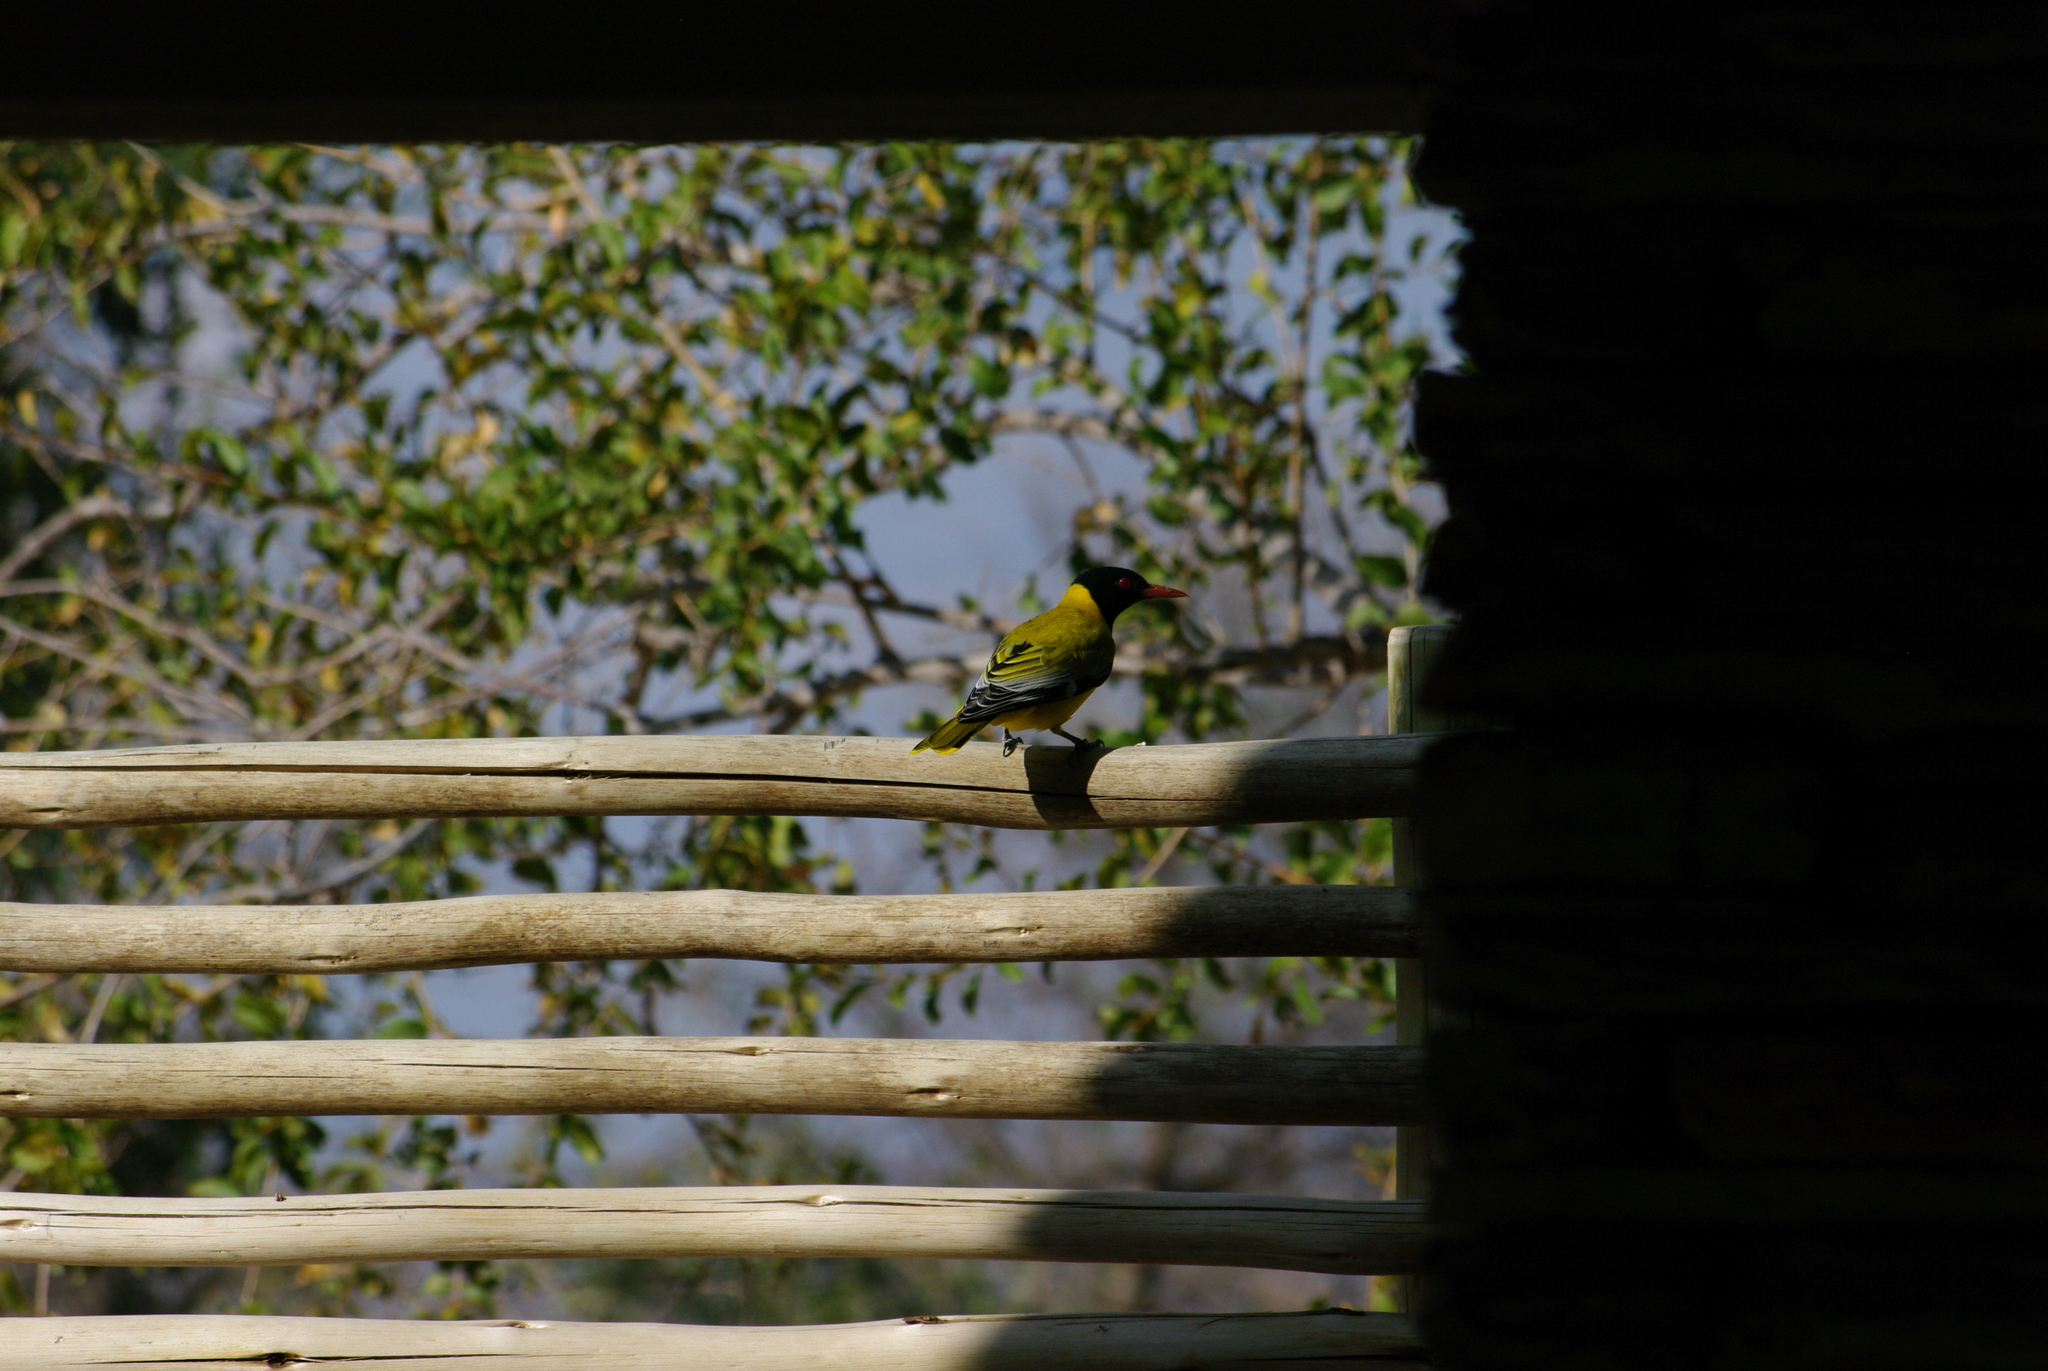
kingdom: Animalia
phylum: Chordata
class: Aves
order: Passeriformes
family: Oriolidae
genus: Oriolus
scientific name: Oriolus larvatus
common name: Black-headed oriole
